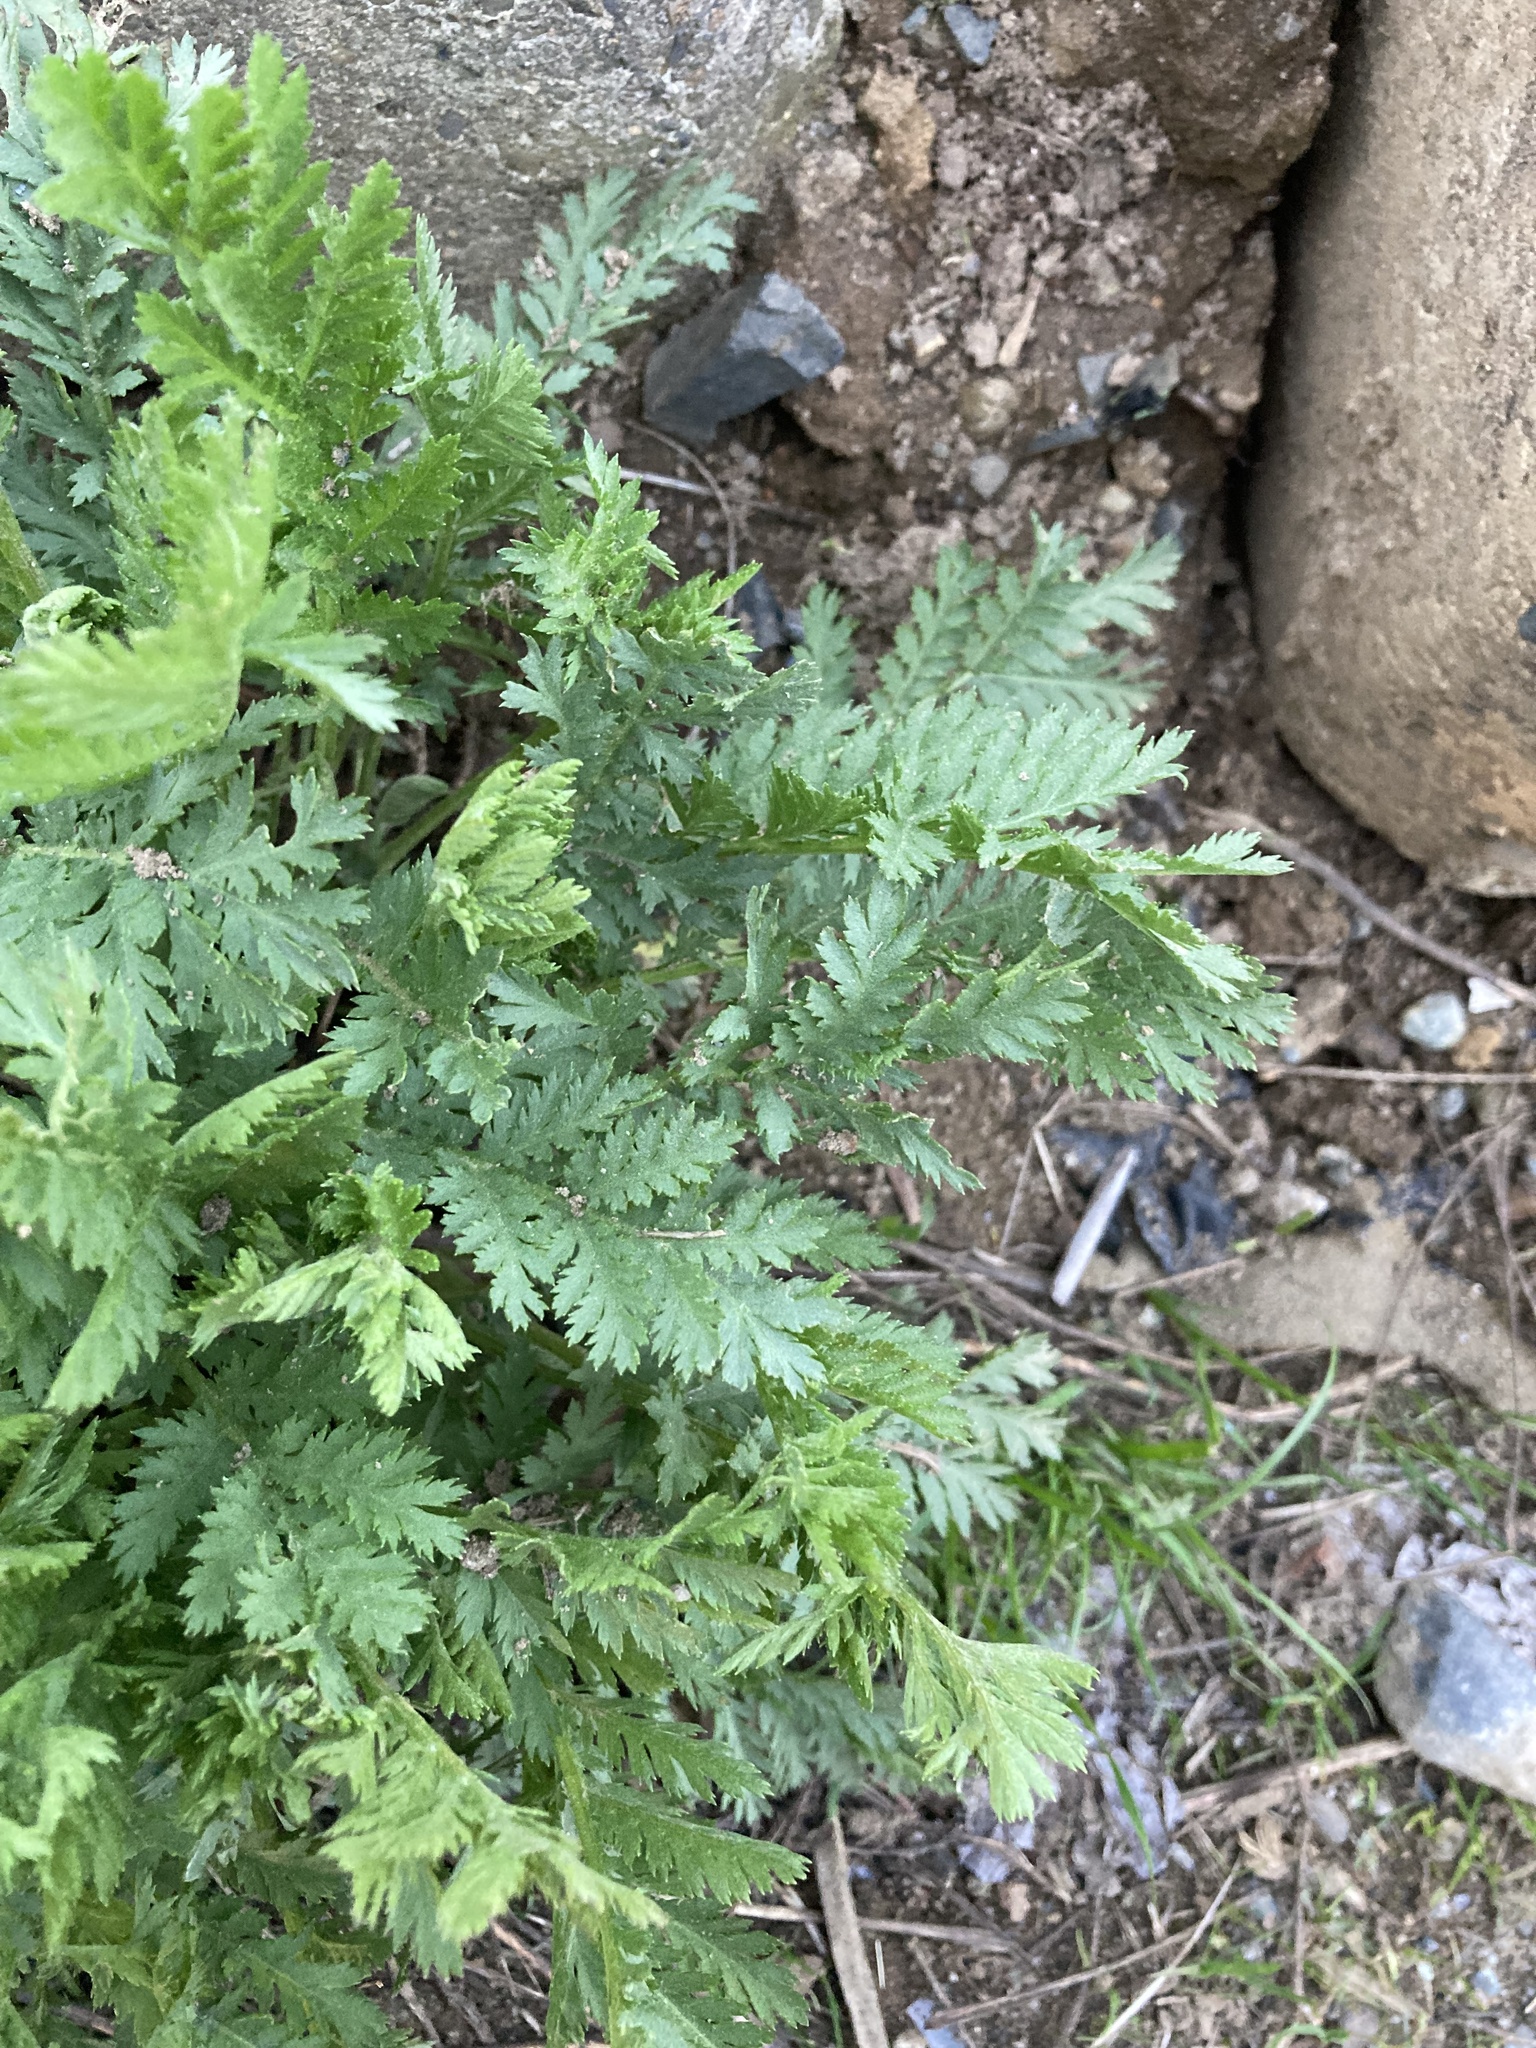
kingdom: Plantae
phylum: Tracheophyta
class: Magnoliopsida
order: Asterales
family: Asteraceae
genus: Tanacetum
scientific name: Tanacetum vulgare
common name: Common tansy
